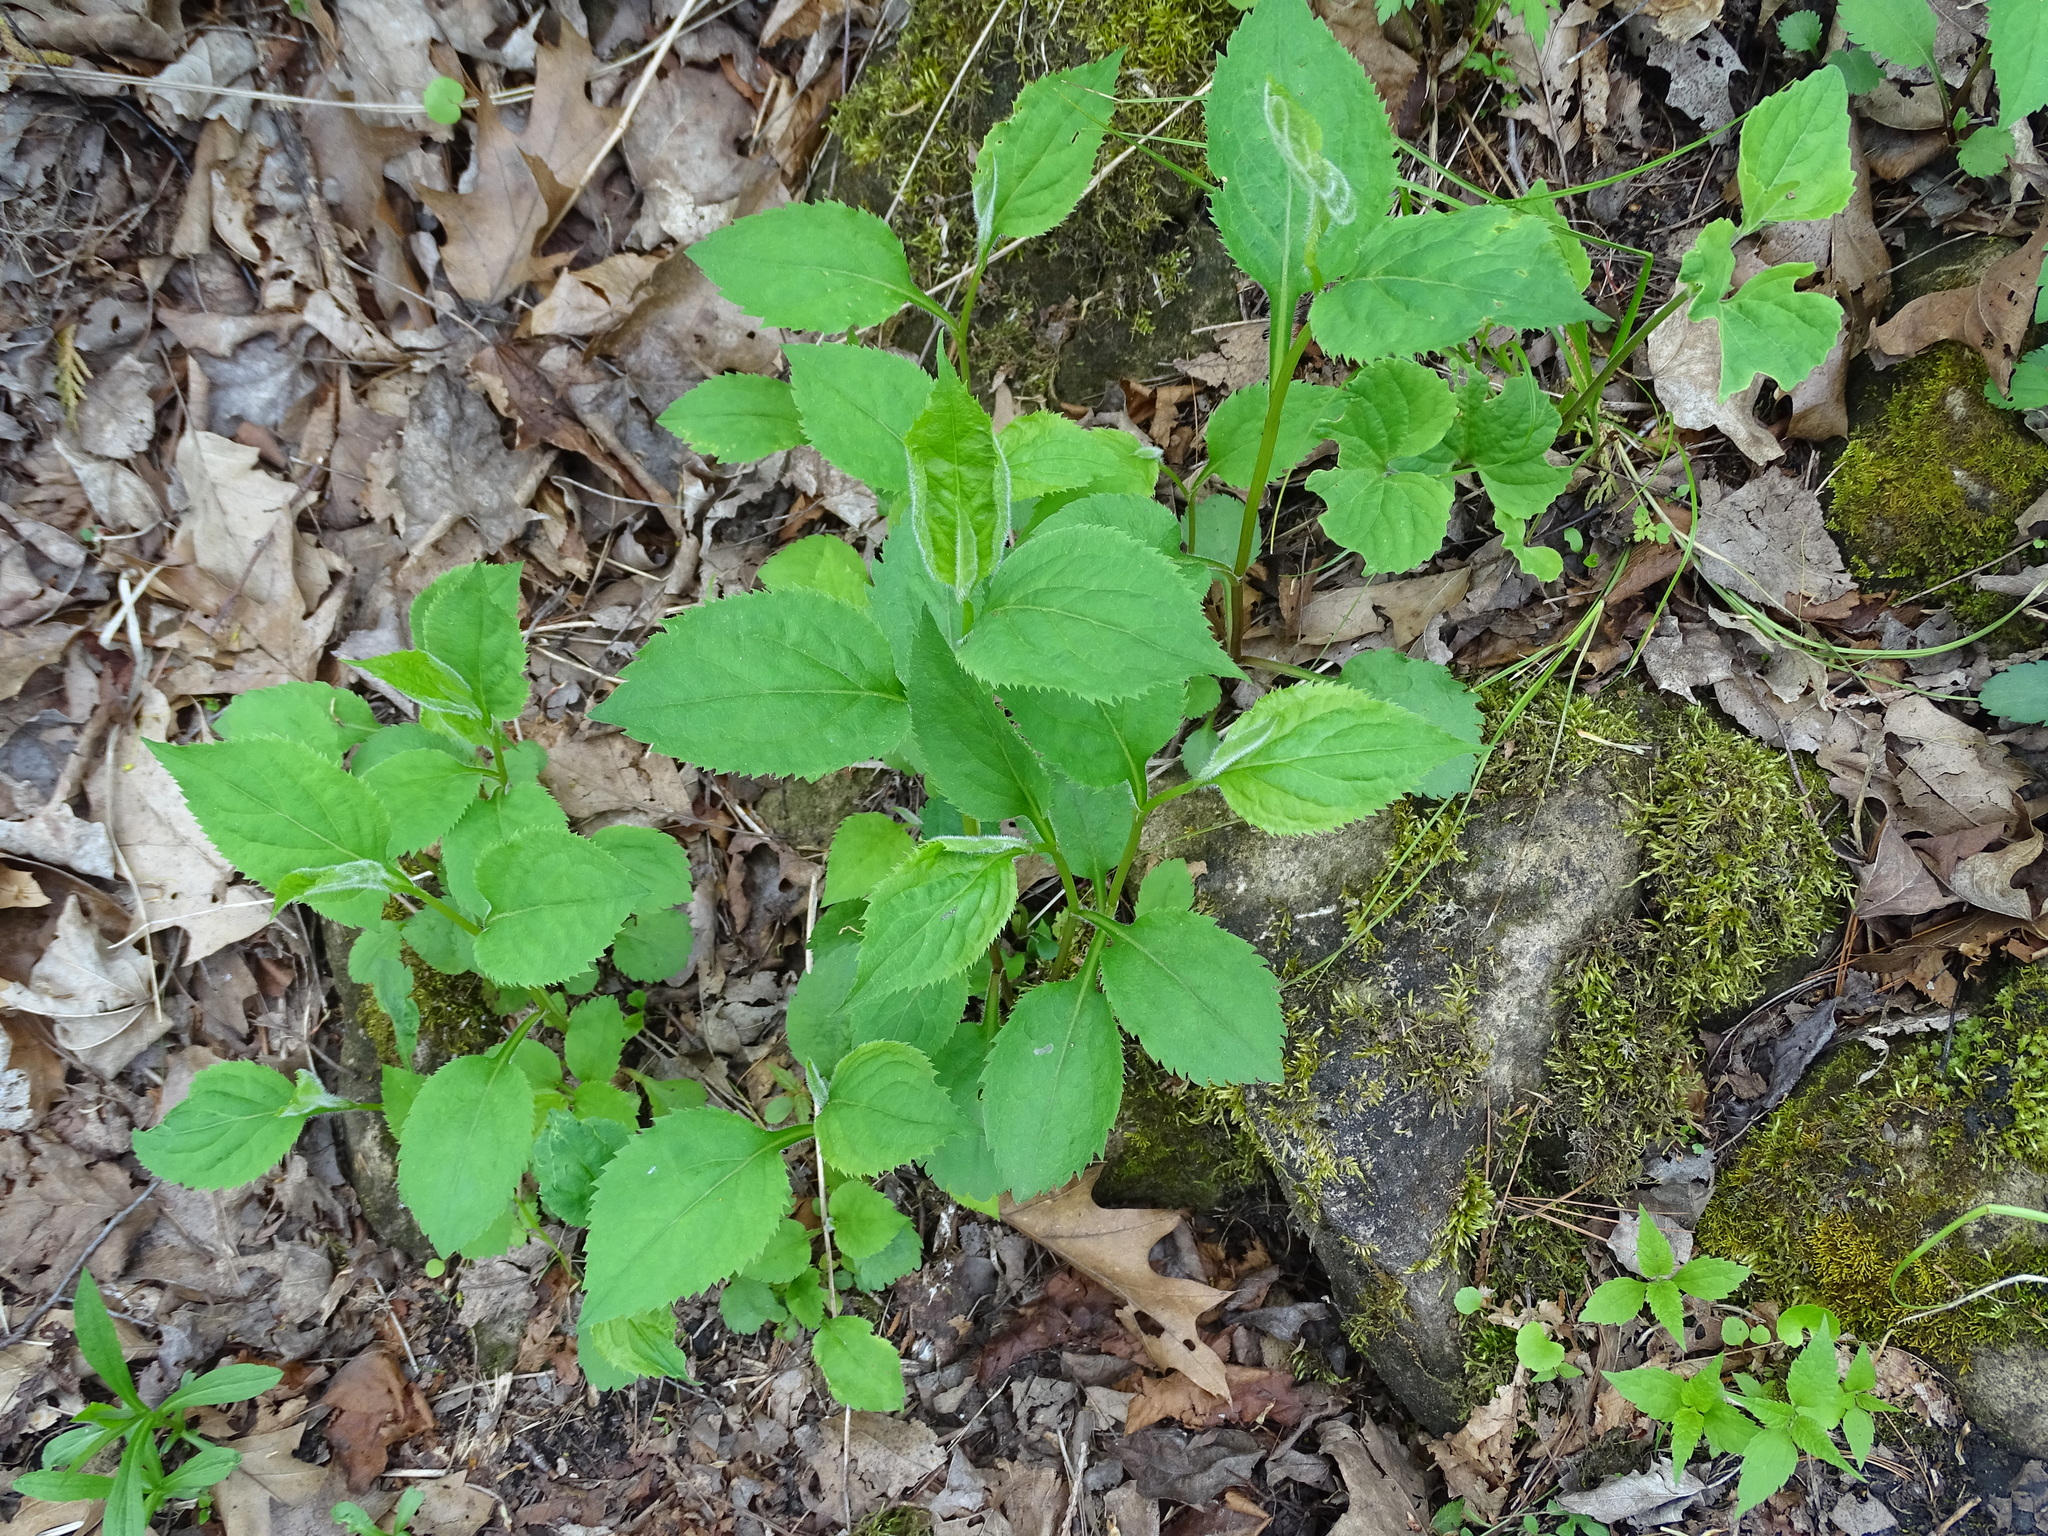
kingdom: Plantae
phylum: Tracheophyta
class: Magnoliopsida
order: Asterales
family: Asteraceae
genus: Solidago
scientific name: Solidago flexicaulis
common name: Zig-zag goldenrod
